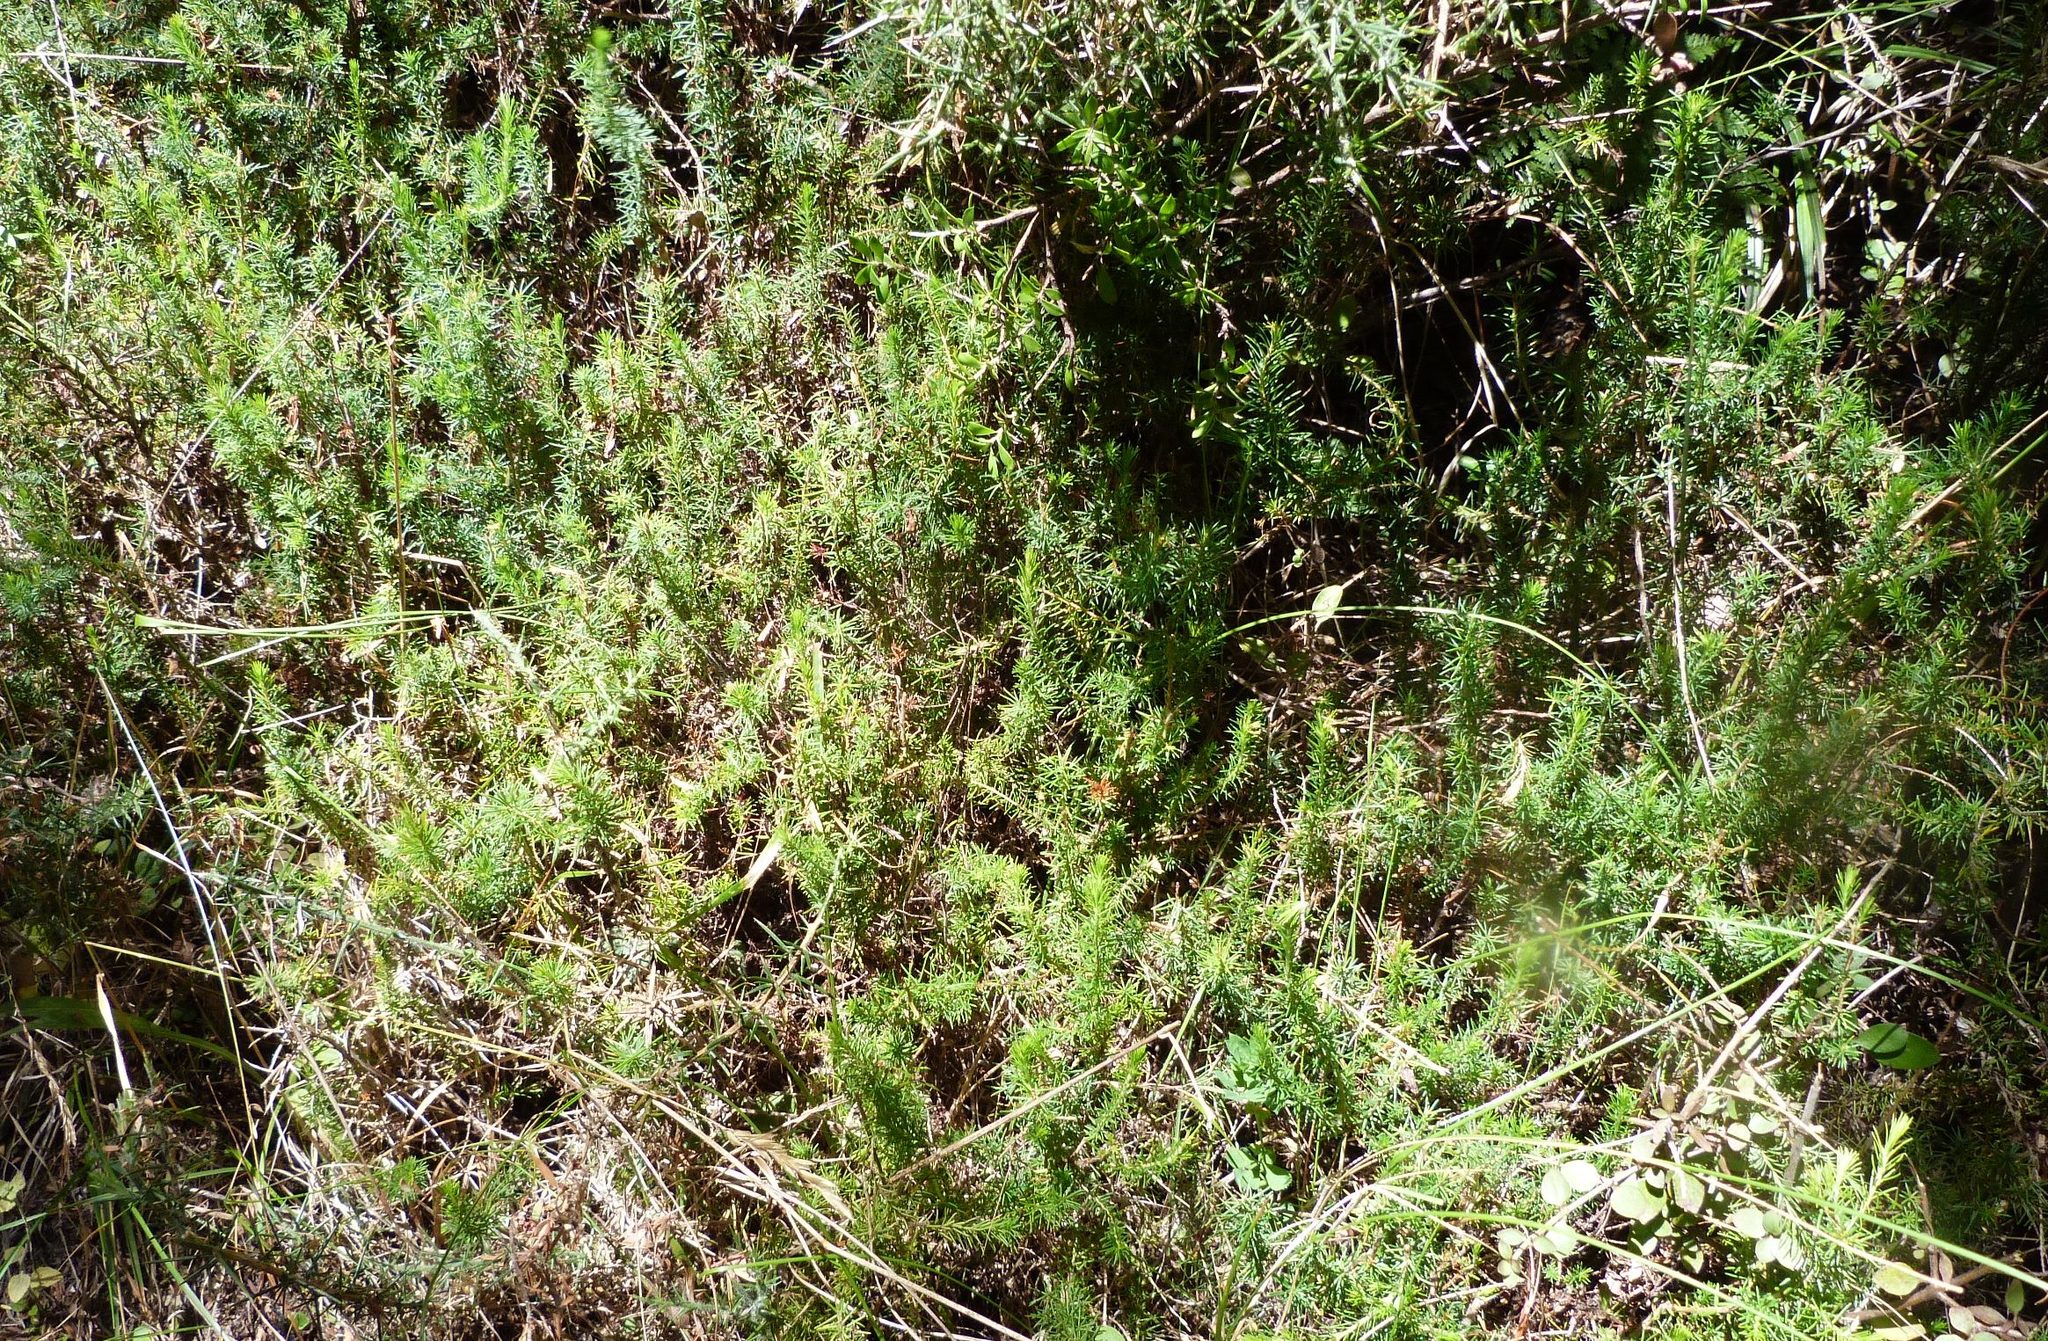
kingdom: Plantae
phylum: Tracheophyta
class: Magnoliopsida
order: Ericales
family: Ericaceae
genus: Erica
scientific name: Erica lusitanica
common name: Spanish heath
